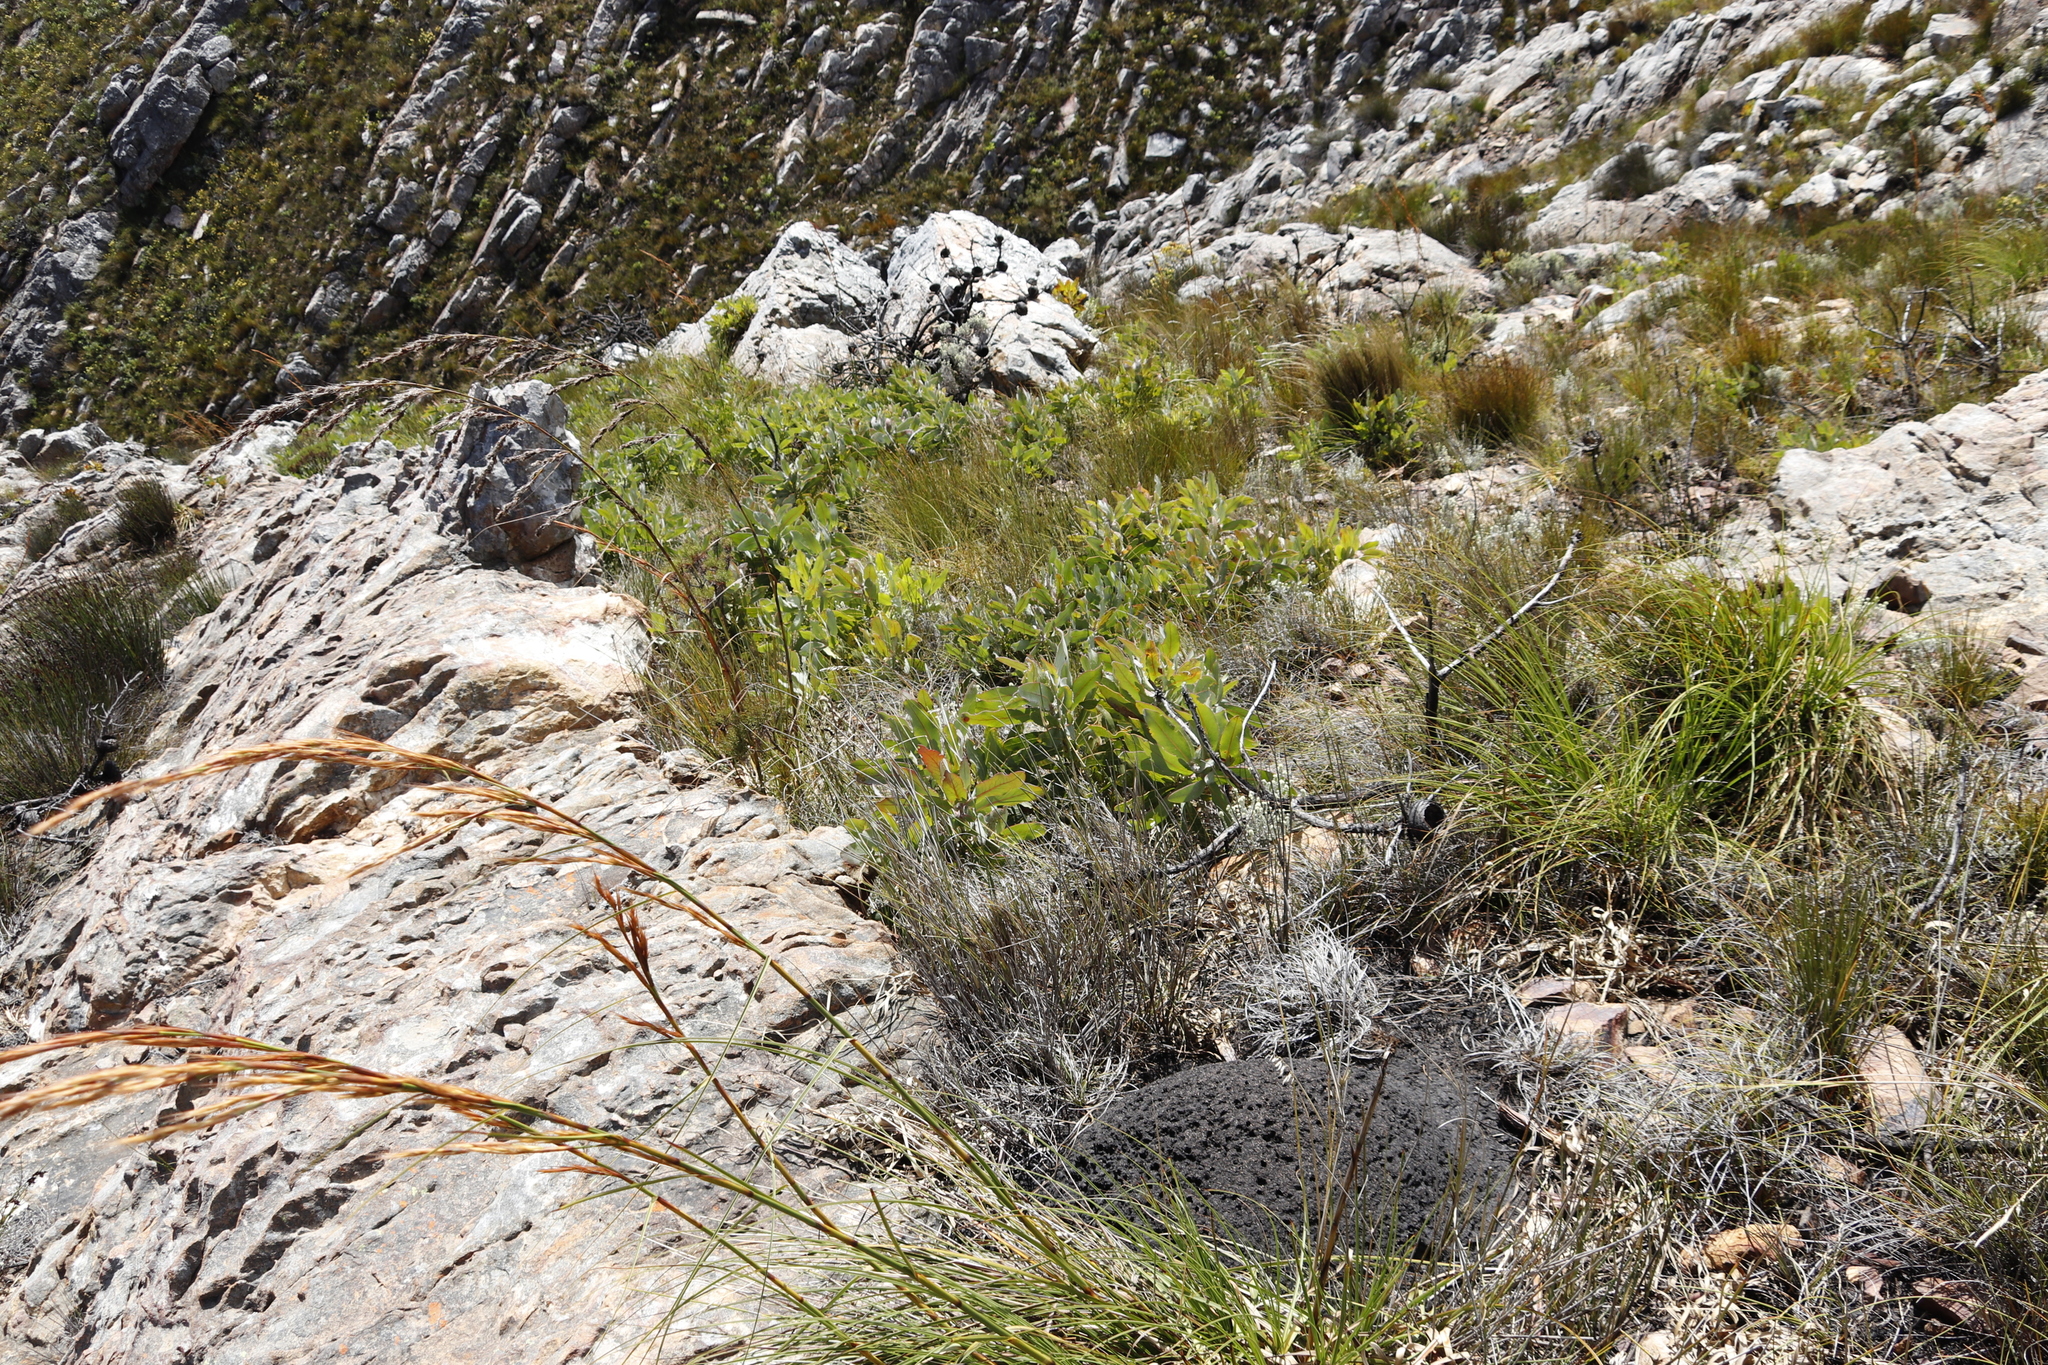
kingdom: Plantae
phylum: Tracheophyta
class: Magnoliopsida
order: Proteales
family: Proteaceae
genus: Protea
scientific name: Protea magnifica
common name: Bearded sugarbush
